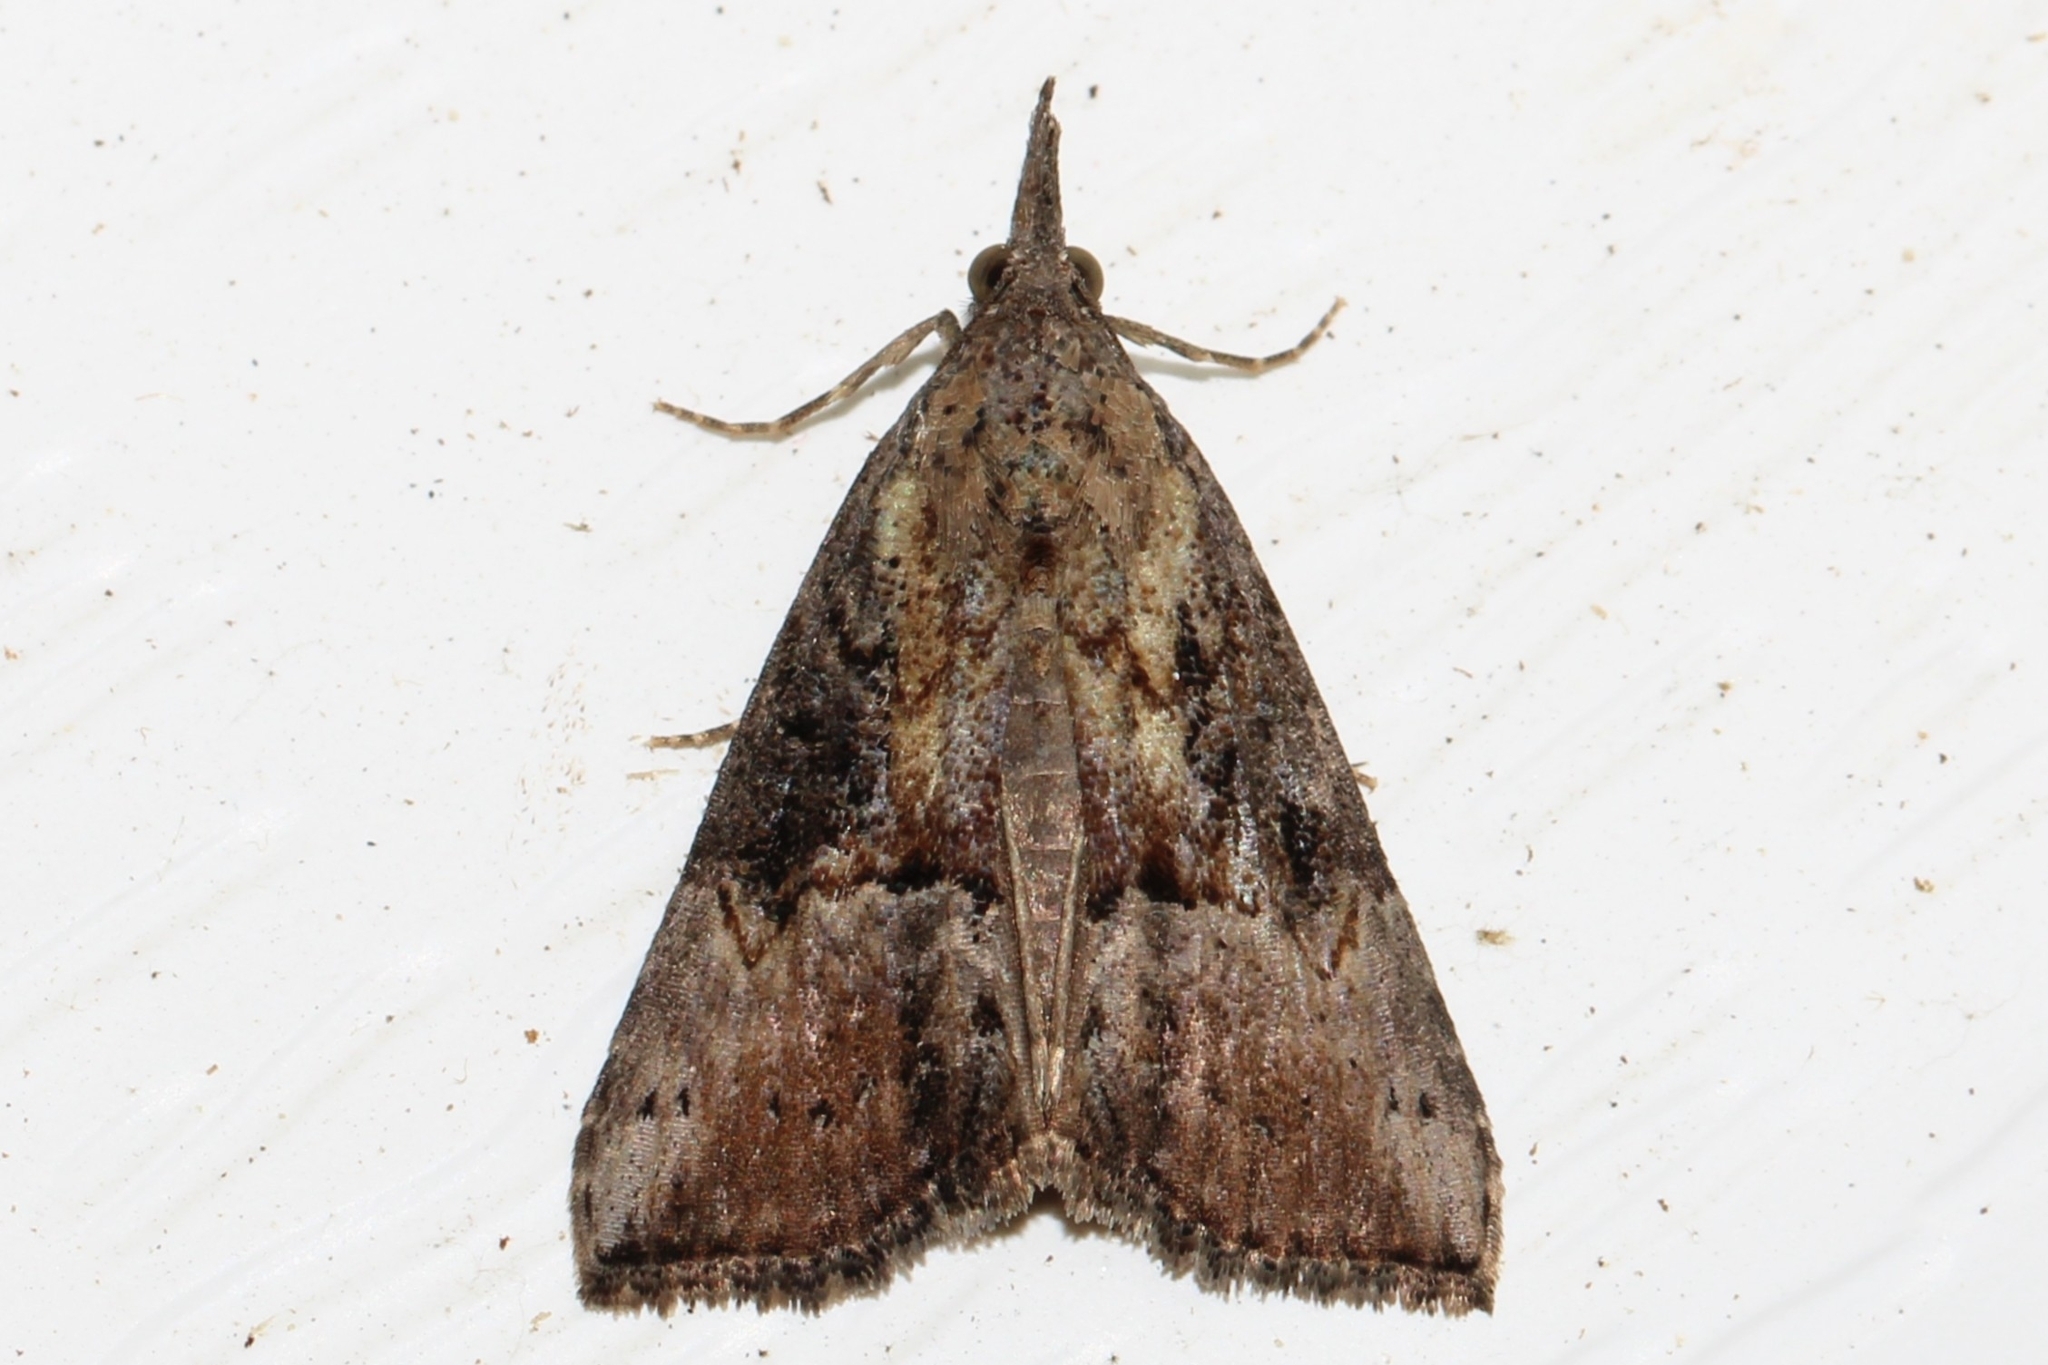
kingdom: Animalia
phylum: Arthropoda
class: Insecta
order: Lepidoptera
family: Erebidae
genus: Hypena
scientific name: Hypena scabra
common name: Green cloverworm
